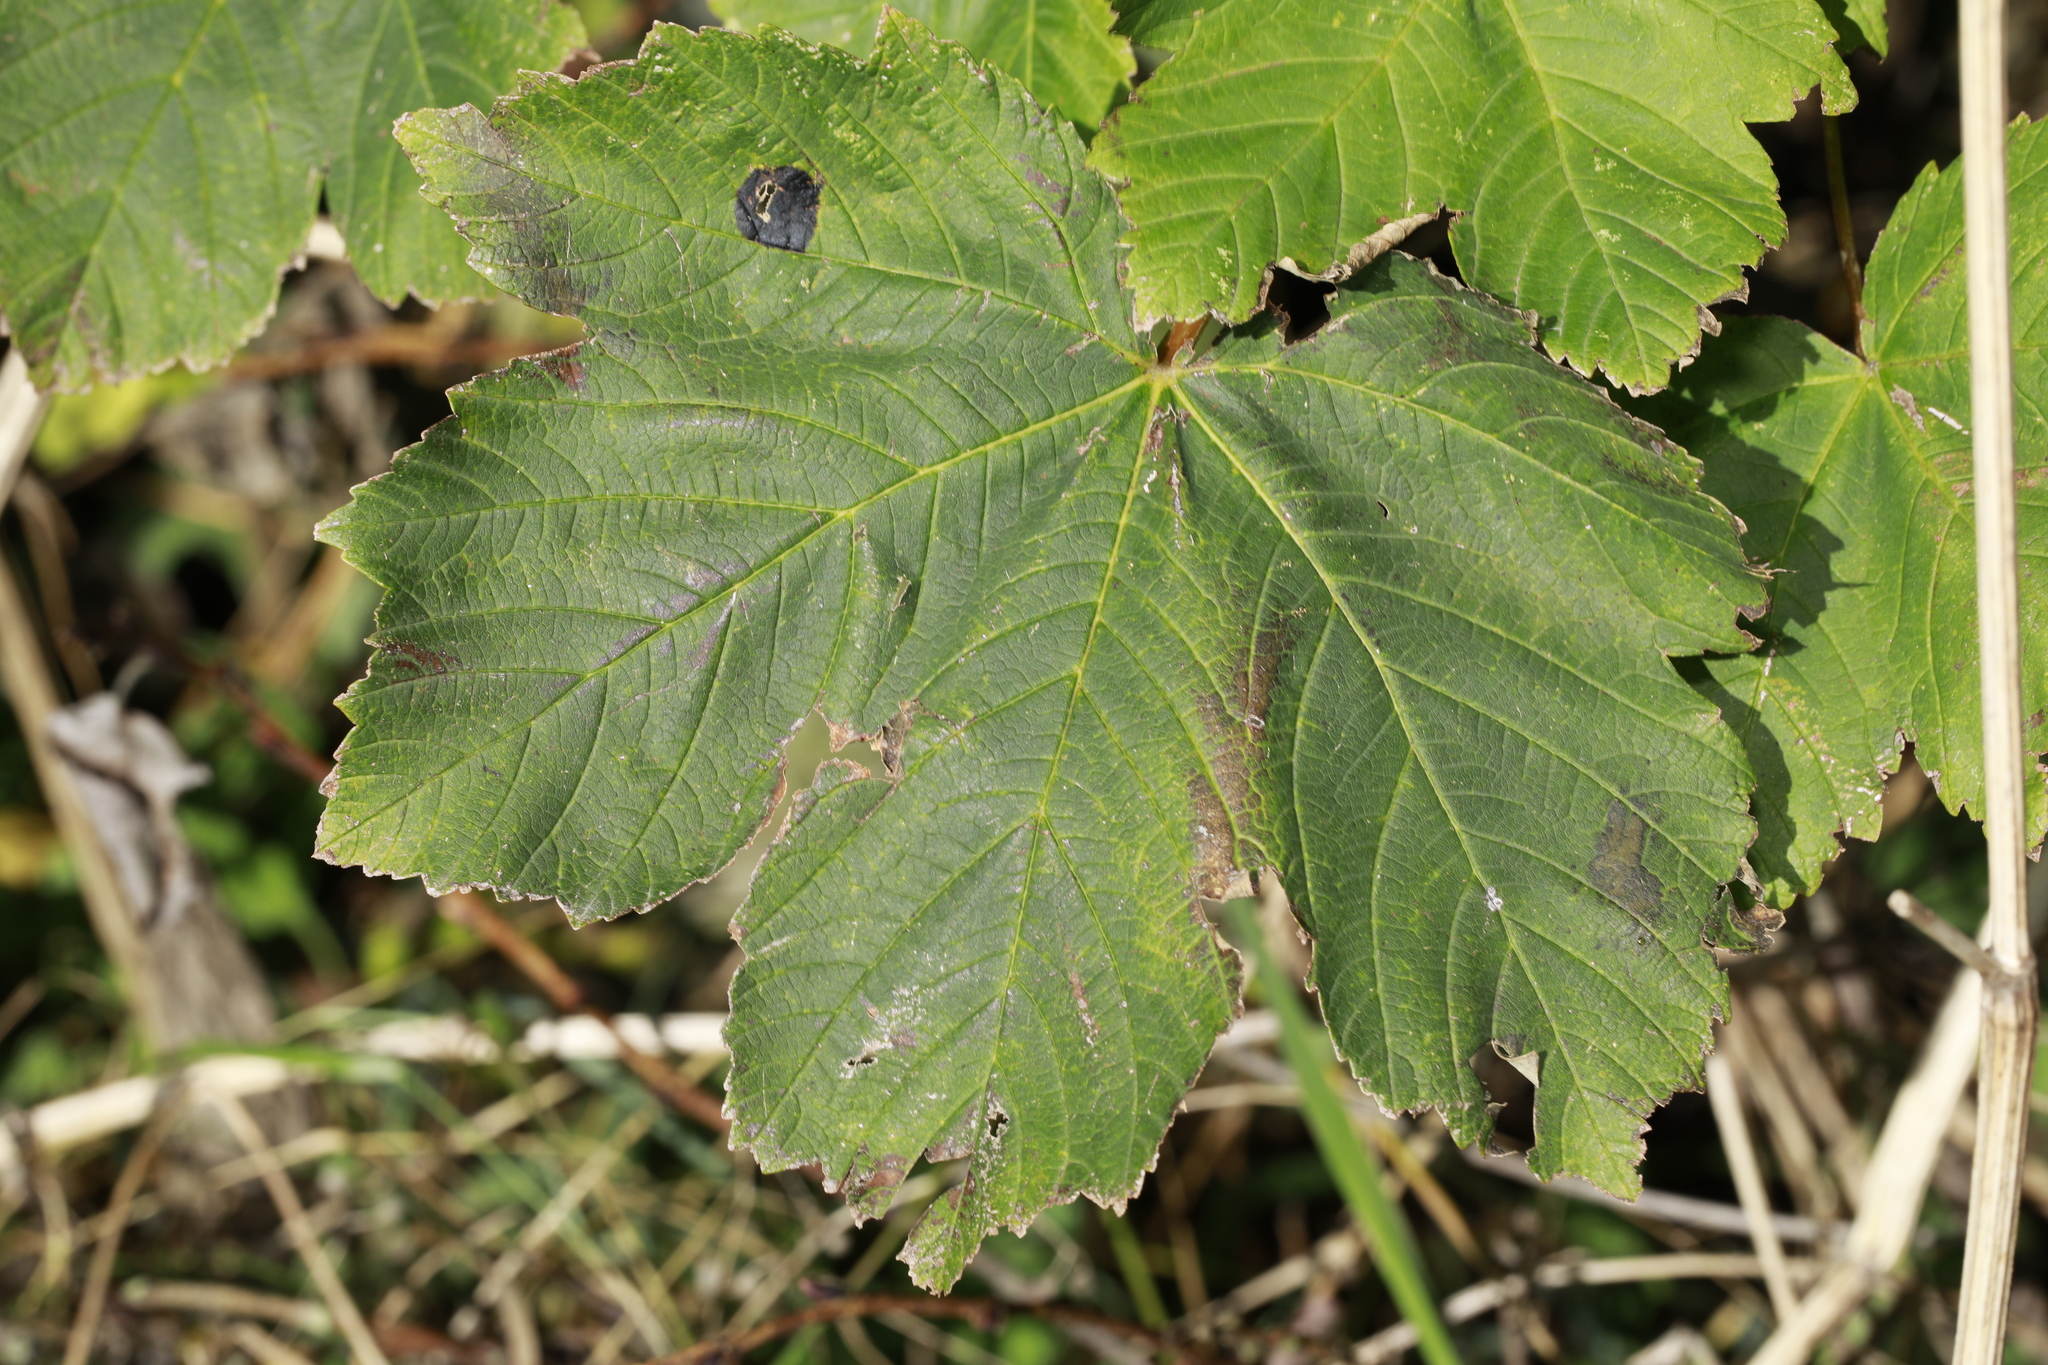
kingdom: Plantae
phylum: Tracheophyta
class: Magnoliopsida
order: Sapindales
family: Sapindaceae
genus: Acer
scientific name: Acer pseudoplatanus
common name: Sycamore
